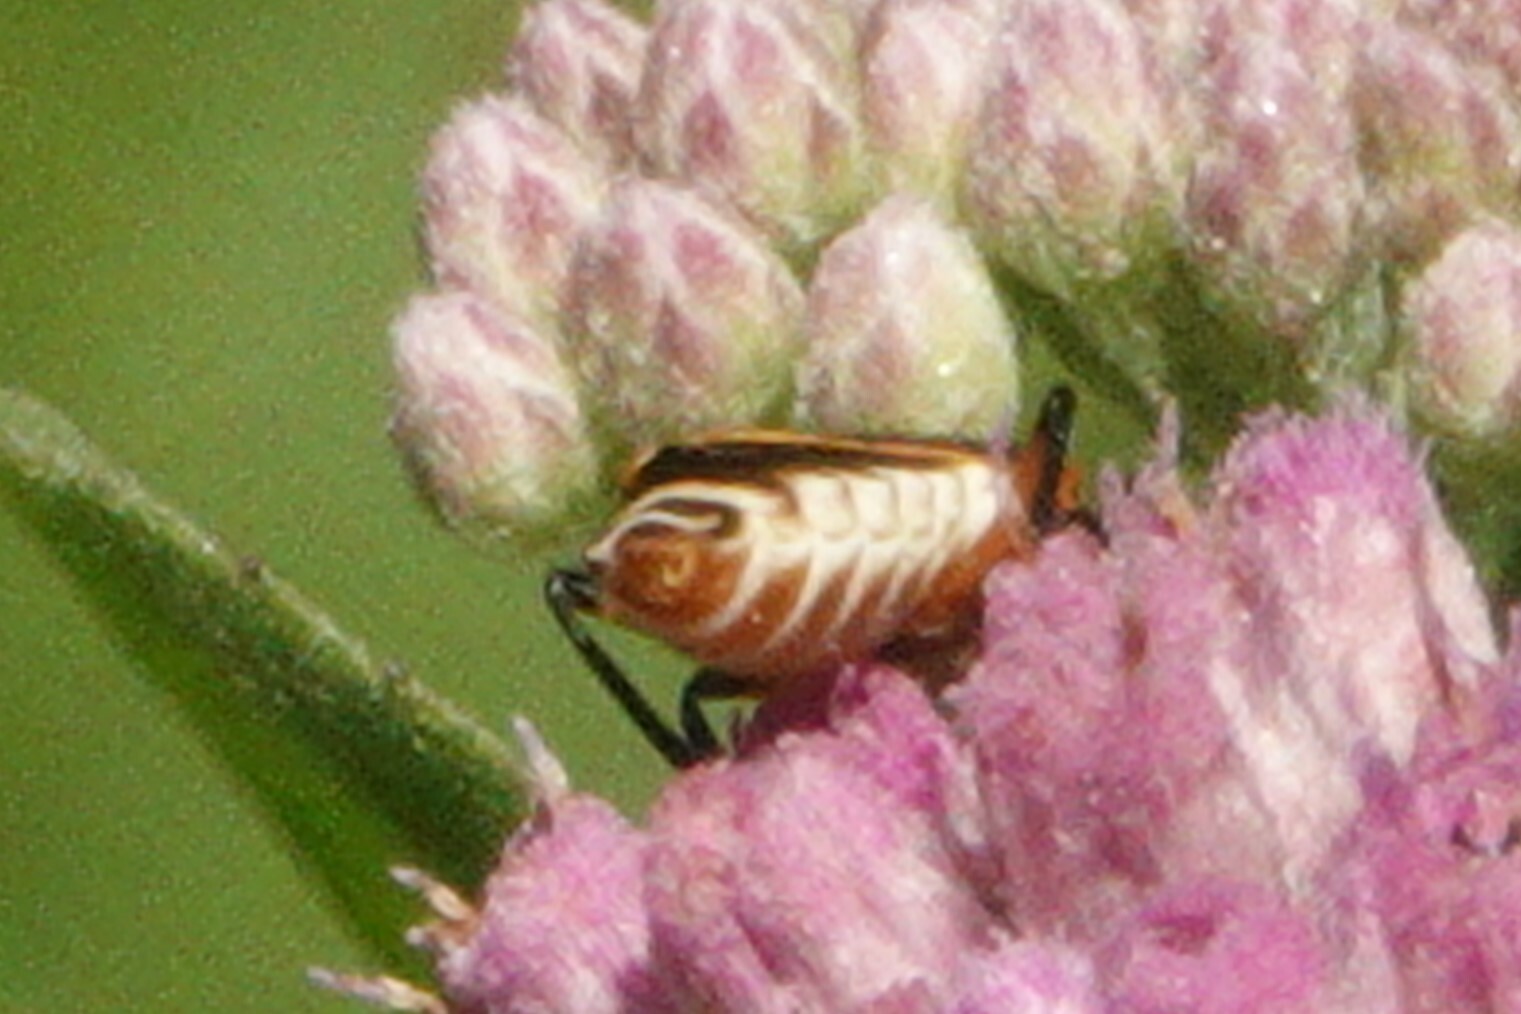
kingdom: Animalia
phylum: Arthropoda
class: Insecta
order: Coleoptera
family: Cantharidae
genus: Chauliognathus
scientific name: Chauliognathus marginatus
